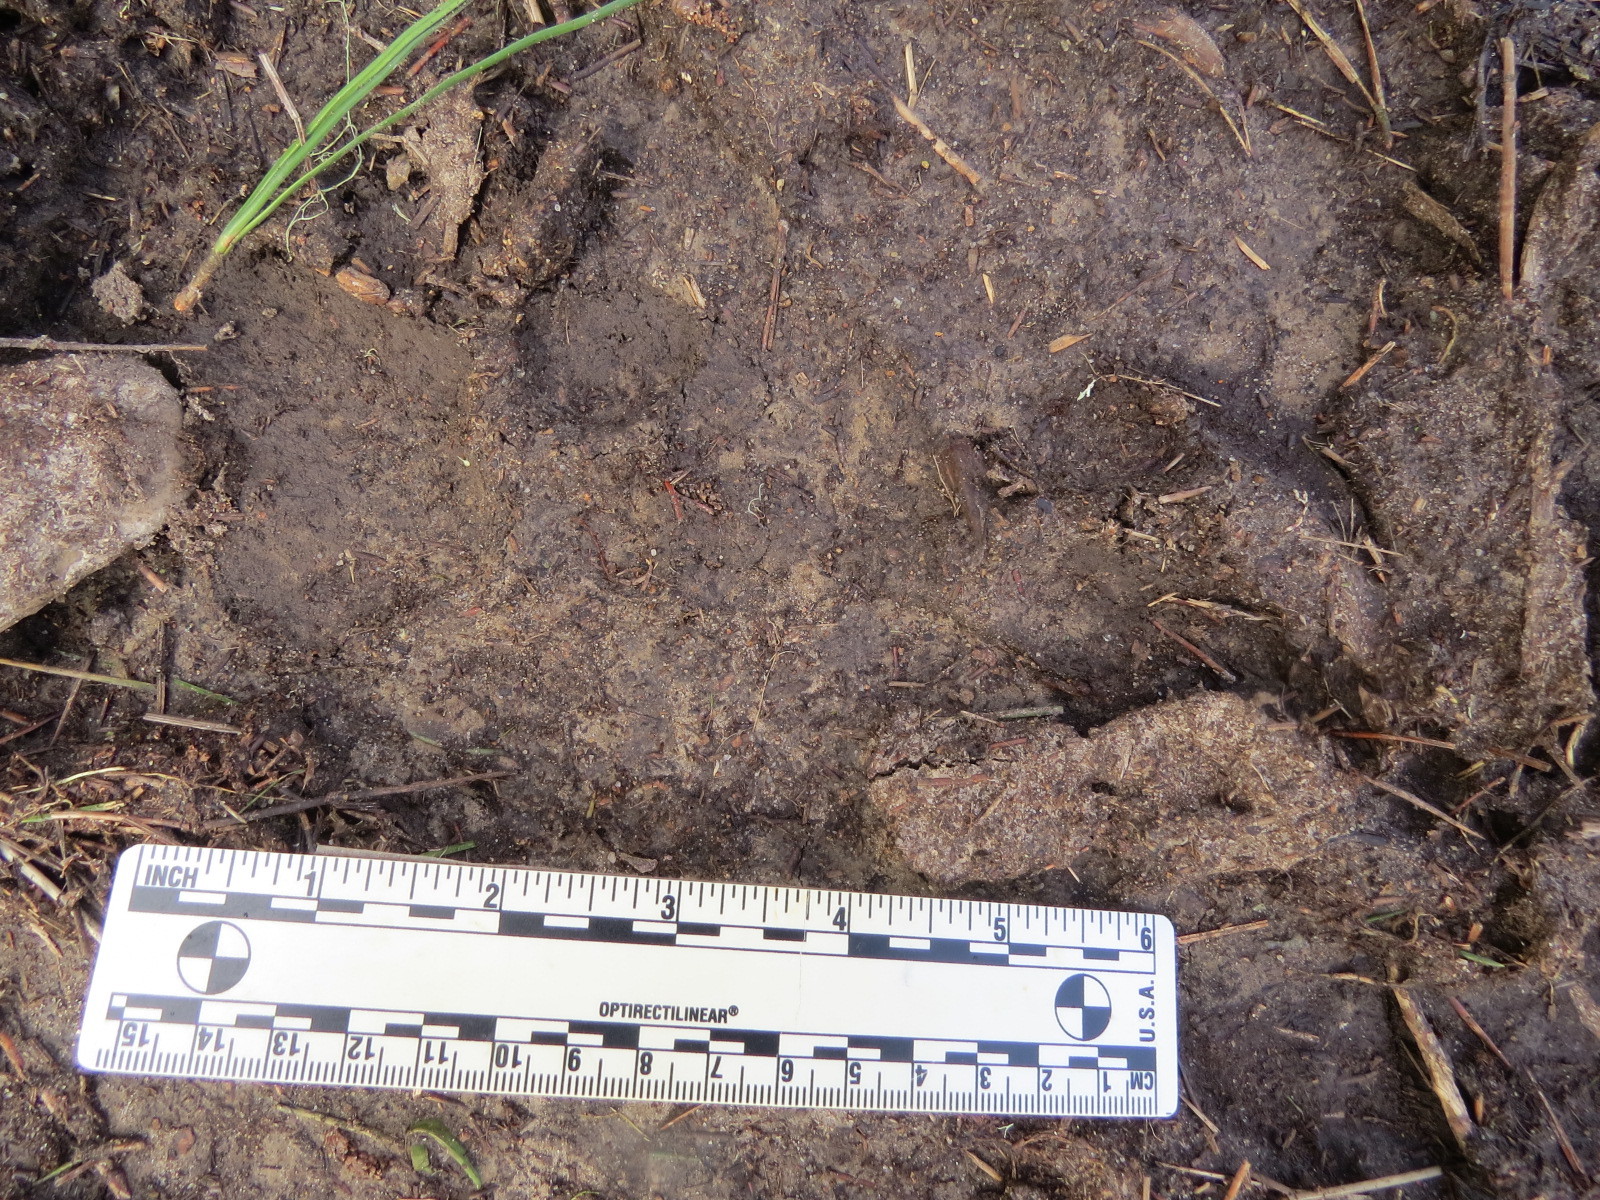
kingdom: Animalia
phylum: Chordata
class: Mammalia
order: Carnivora
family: Felidae
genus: Puma
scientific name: Puma concolor
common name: Puma
